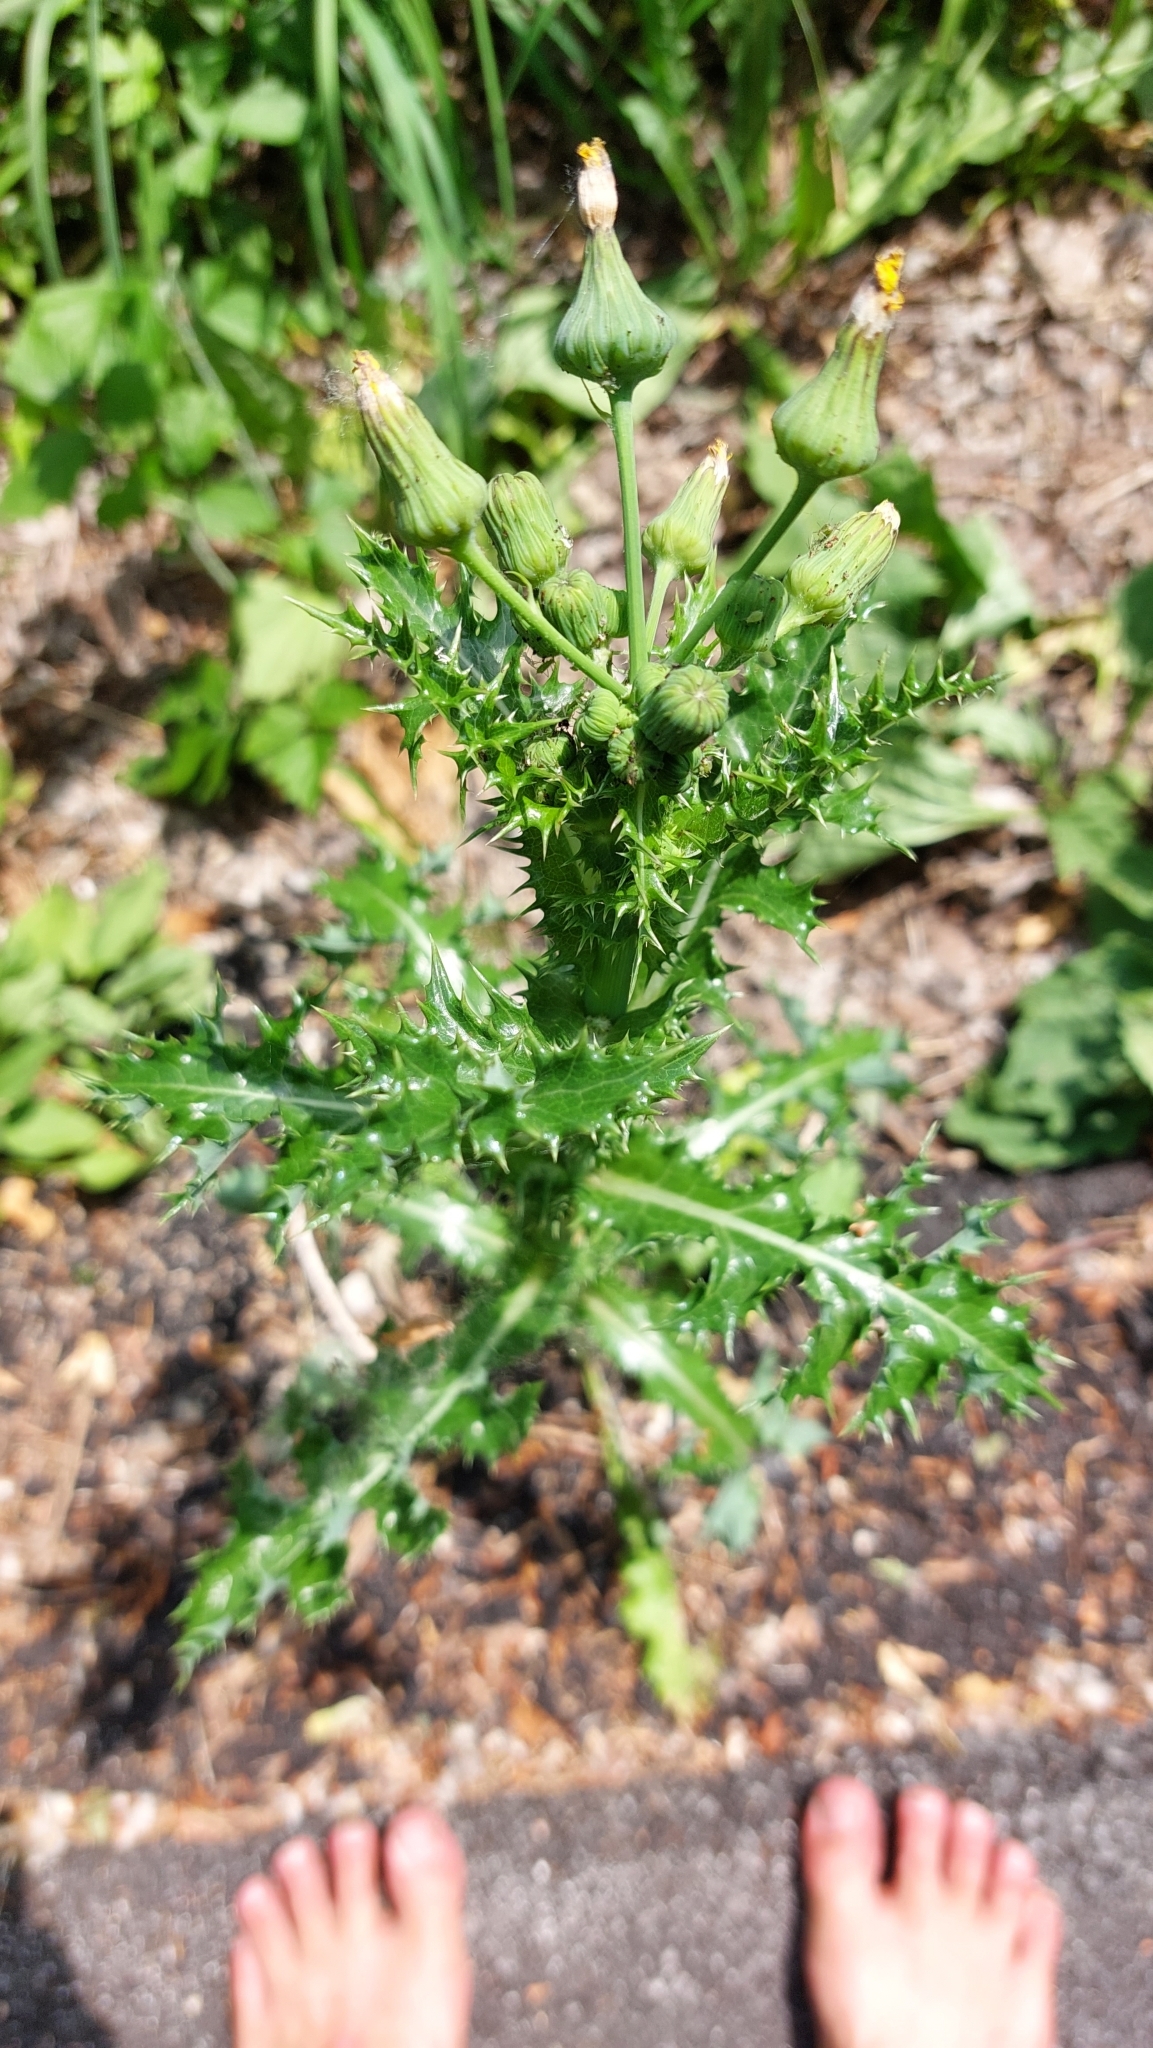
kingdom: Plantae
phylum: Tracheophyta
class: Magnoliopsida
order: Asterales
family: Asteraceae
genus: Sonchus
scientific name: Sonchus asper
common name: Prickly sow-thistle
